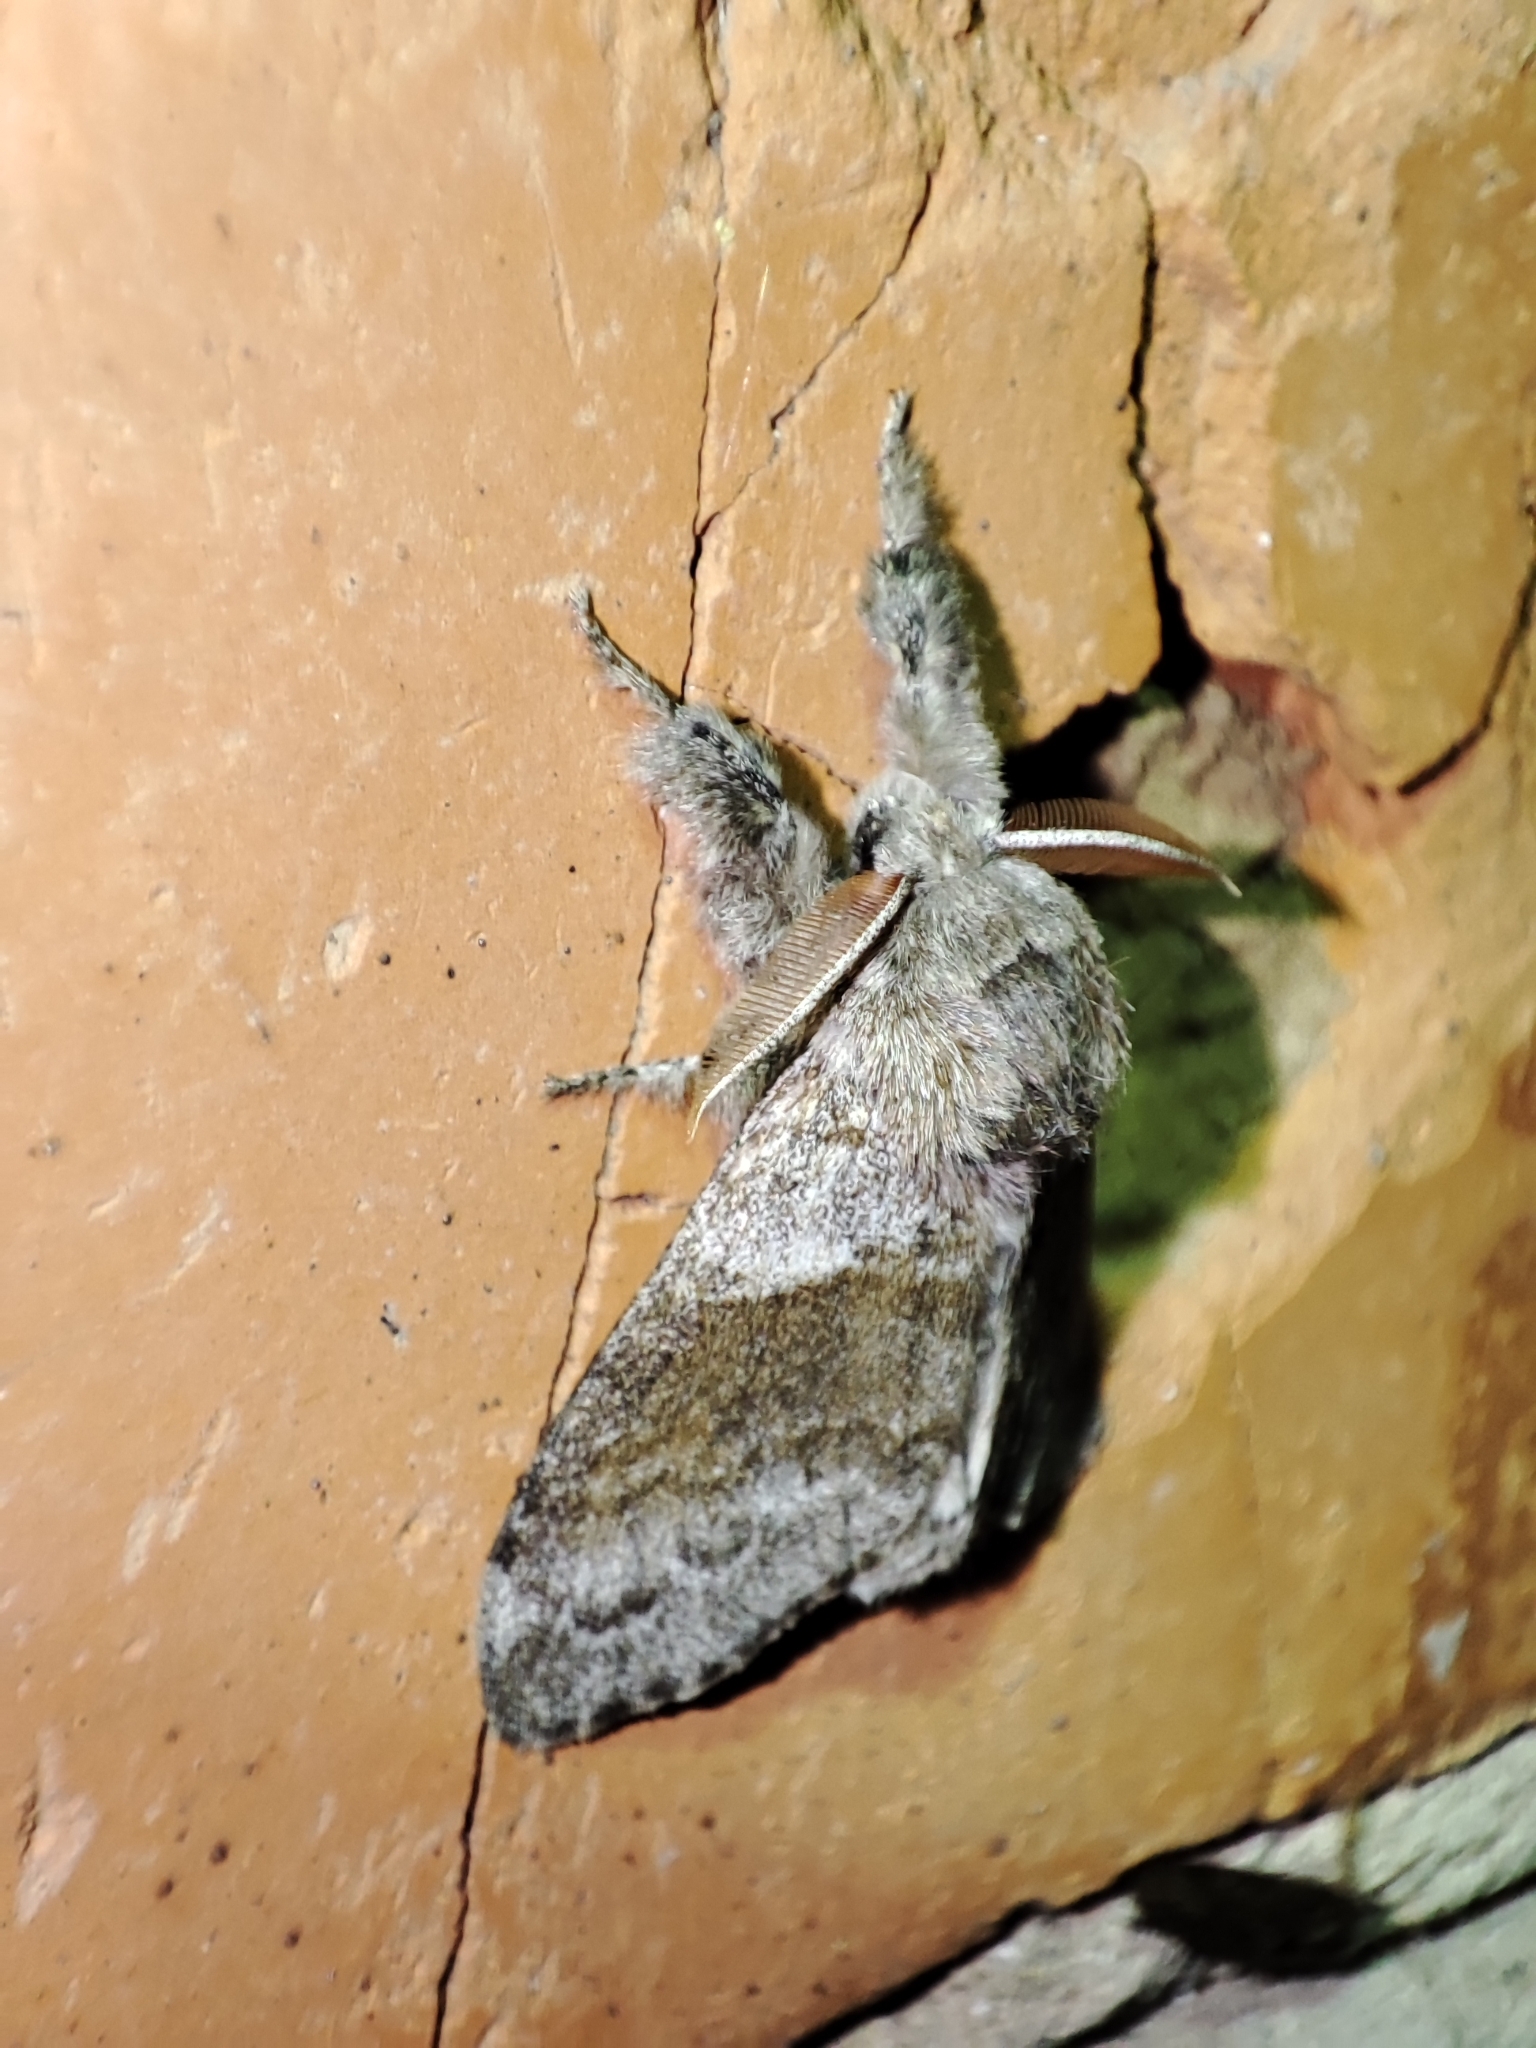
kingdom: Animalia
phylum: Arthropoda
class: Insecta
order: Lepidoptera
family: Erebidae
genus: Calliteara
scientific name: Calliteara pudibunda
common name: Pale tussock
